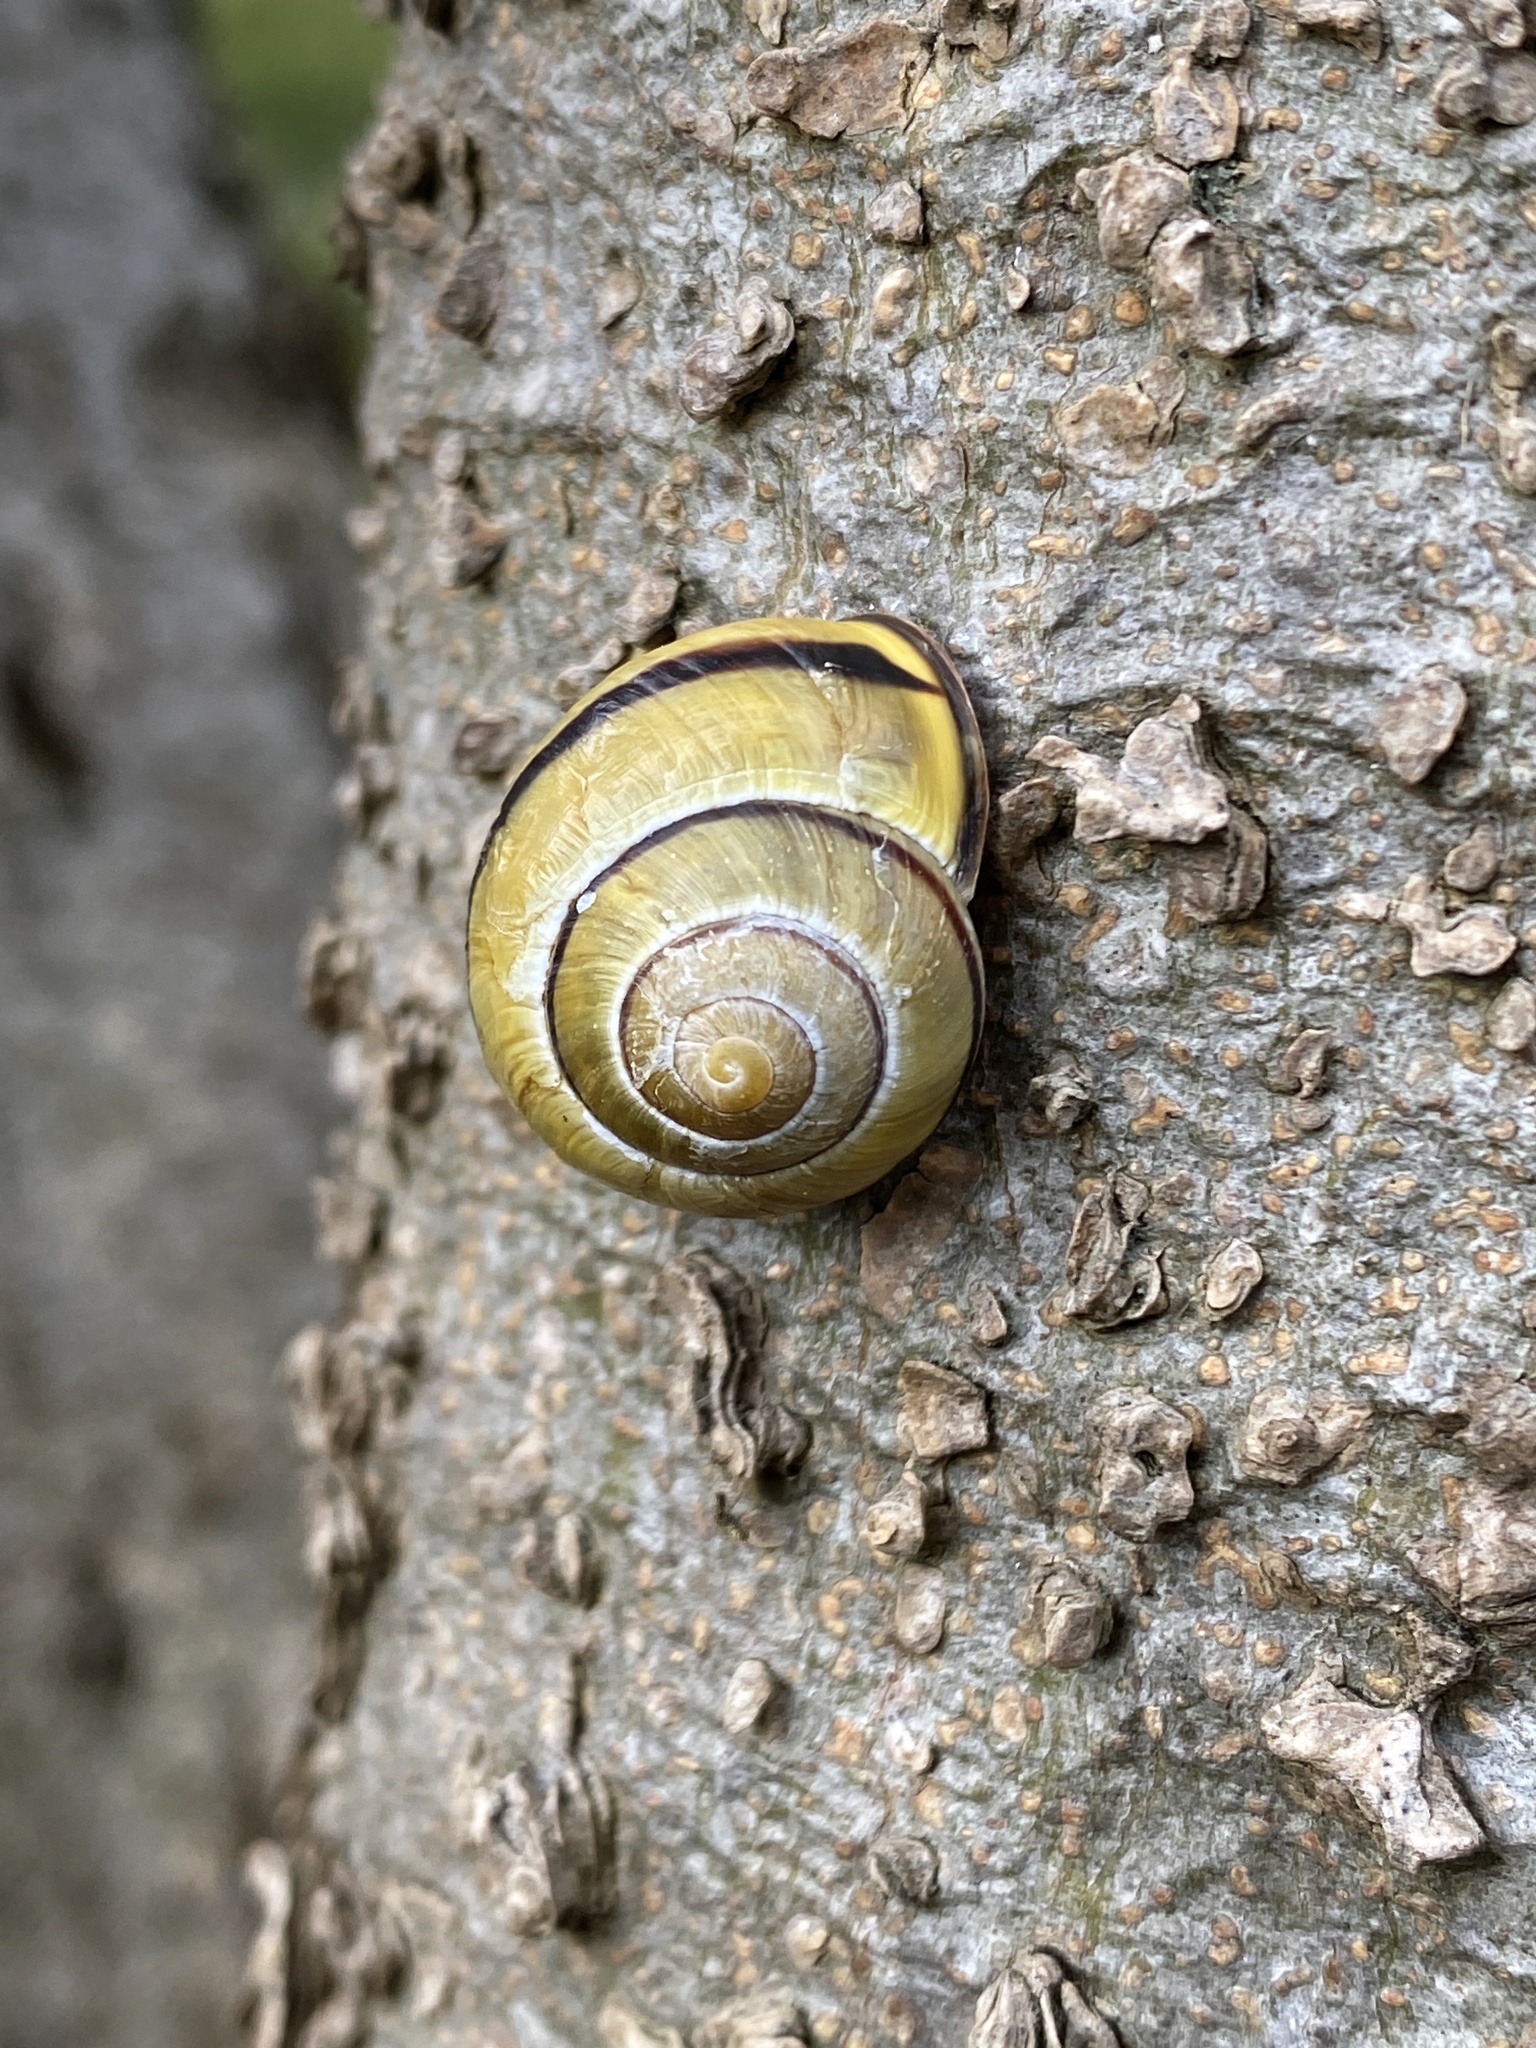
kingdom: Animalia
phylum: Mollusca
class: Gastropoda
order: Stylommatophora
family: Helicidae
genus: Cepaea
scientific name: Cepaea nemoralis
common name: Grovesnail
